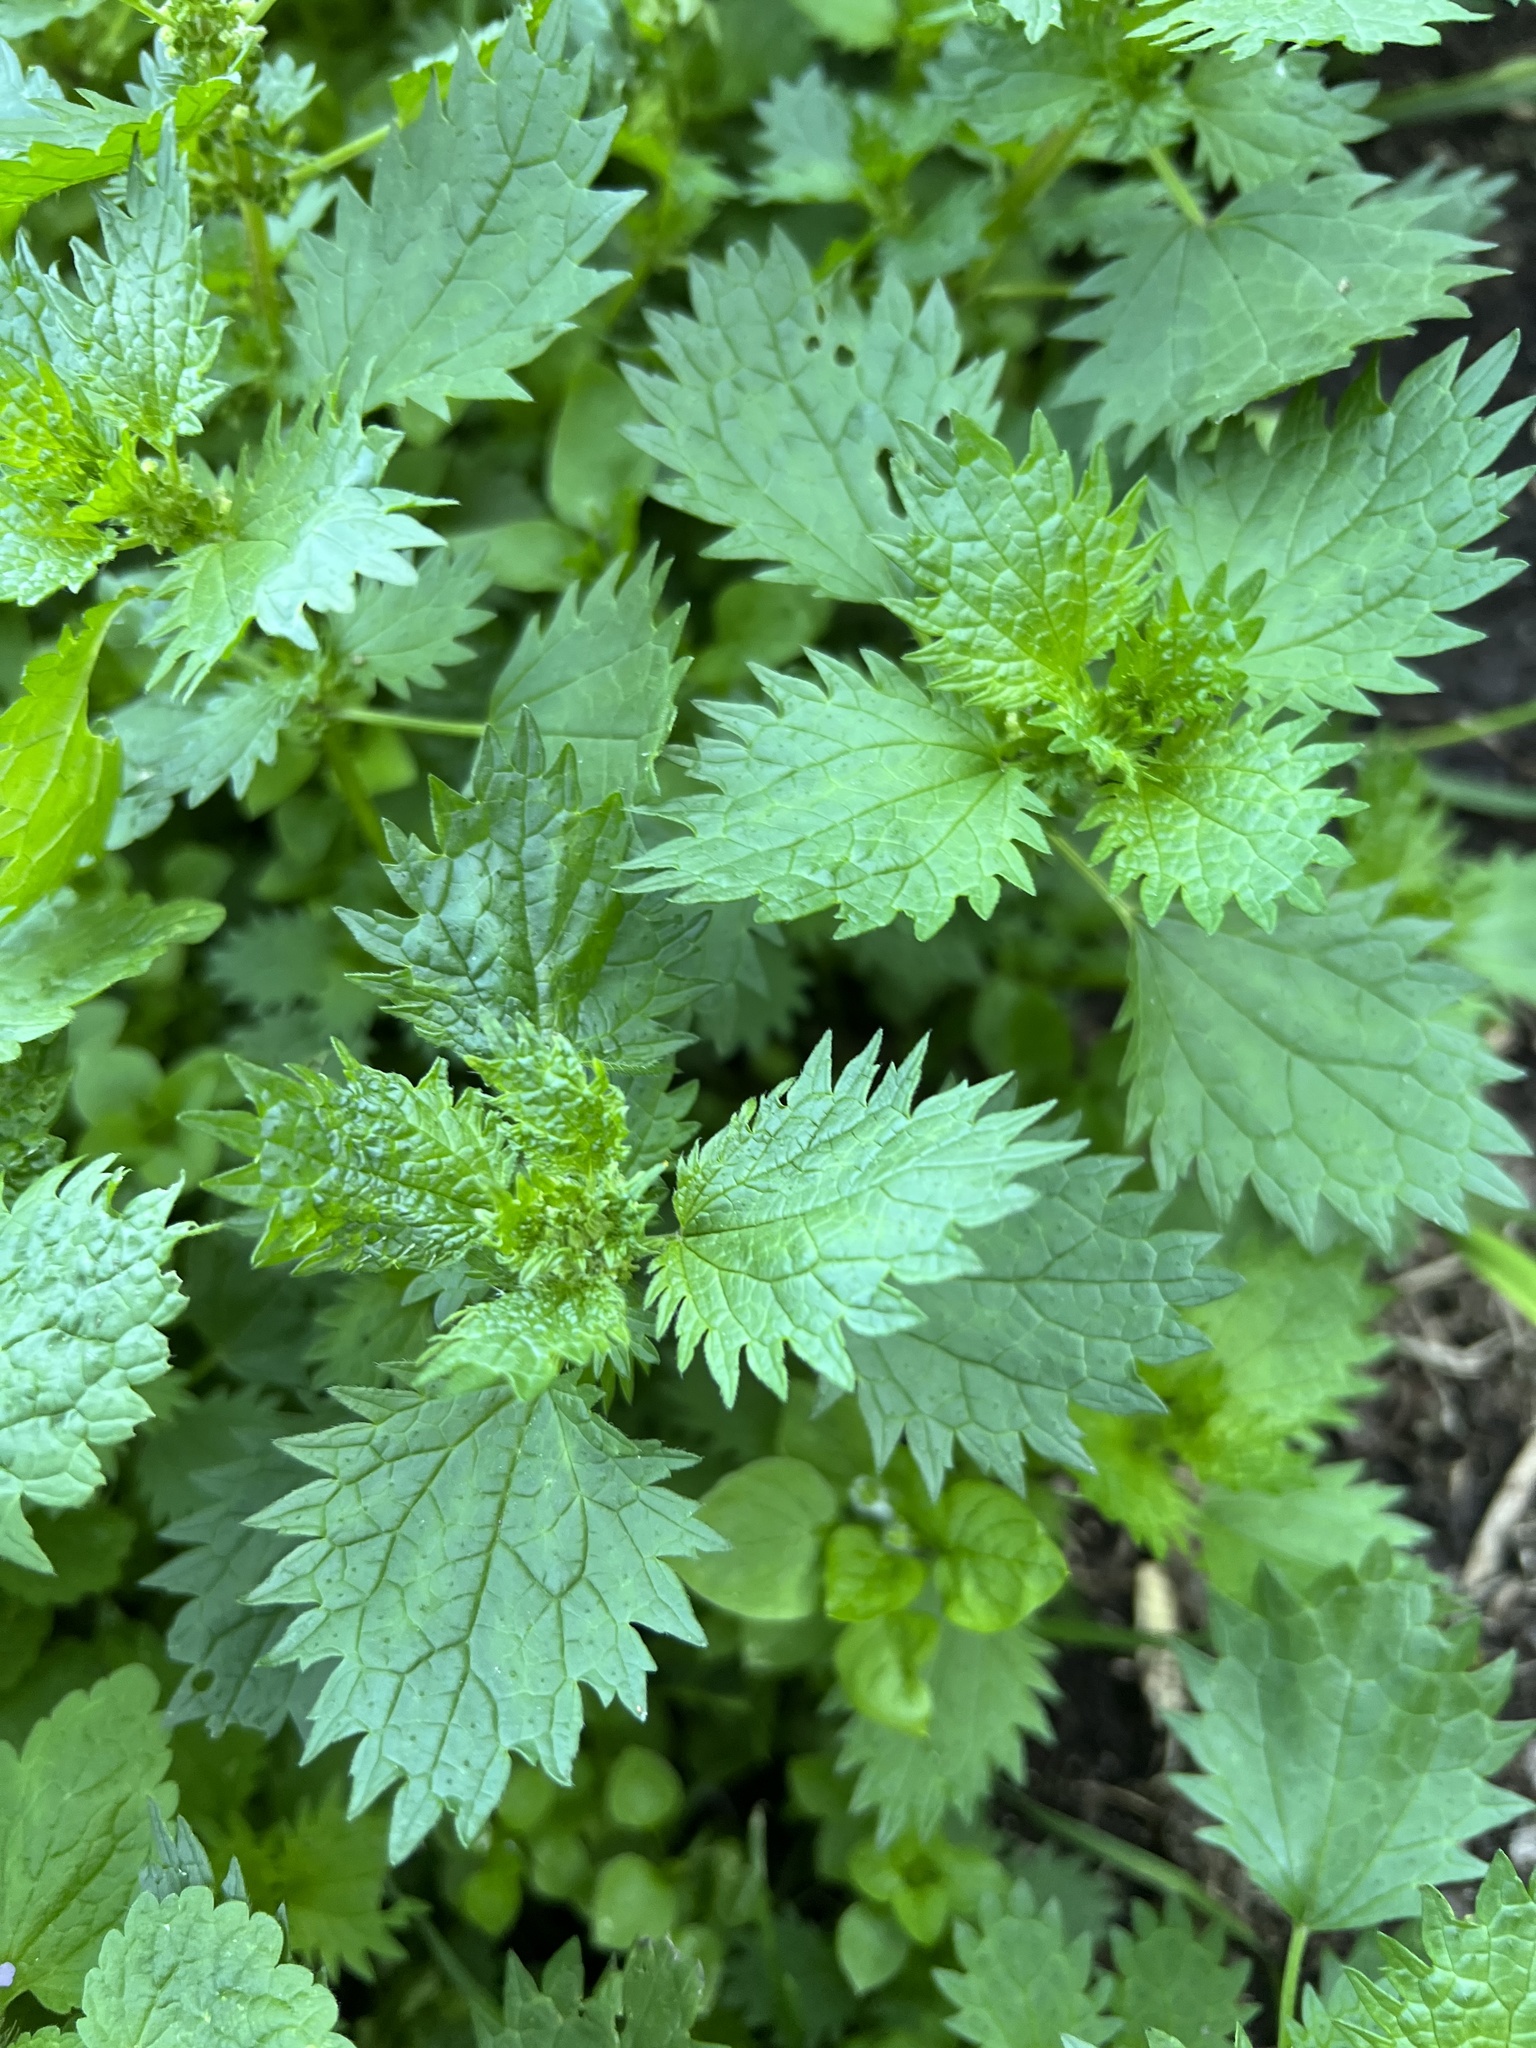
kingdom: Plantae
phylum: Tracheophyta
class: Magnoliopsida
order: Rosales
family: Urticaceae
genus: Urtica
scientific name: Urtica urens
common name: Dwarf nettle
